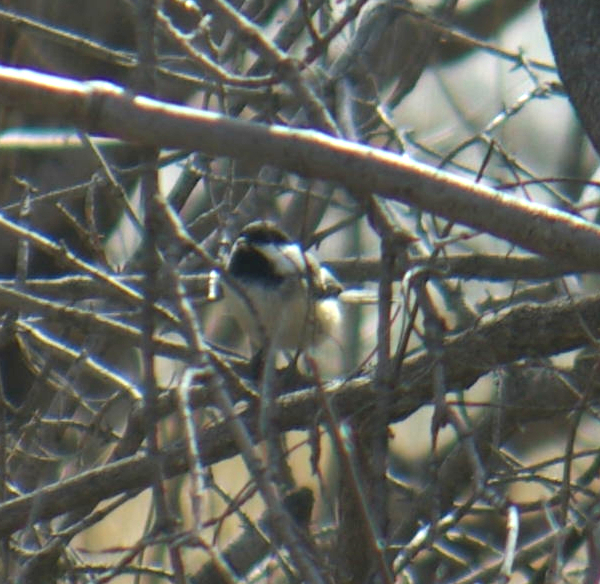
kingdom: Animalia
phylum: Chordata
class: Aves
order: Passeriformes
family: Paridae
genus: Poecile
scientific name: Poecile atricapillus
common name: Black-capped chickadee
